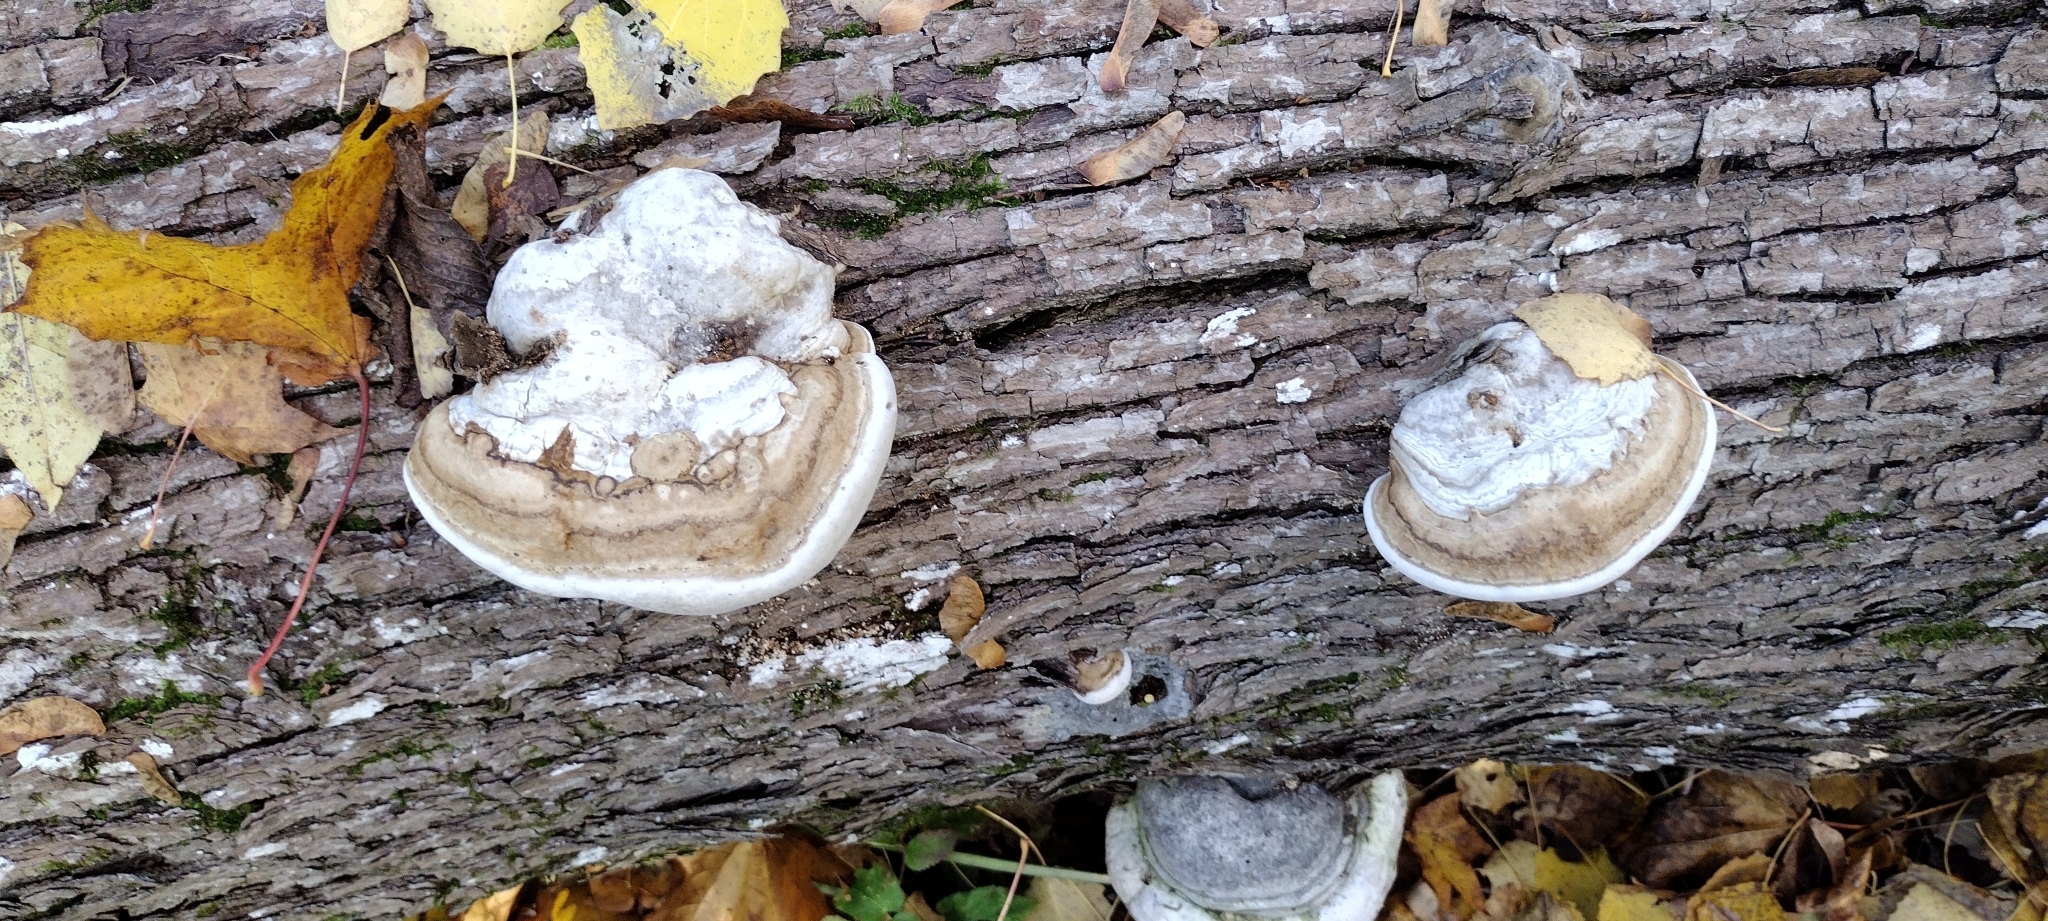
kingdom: Fungi
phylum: Basidiomycota
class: Agaricomycetes
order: Polyporales
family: Polyporaceae
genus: Fomes
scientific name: Fomes fomentarius
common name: Hoof fungus
